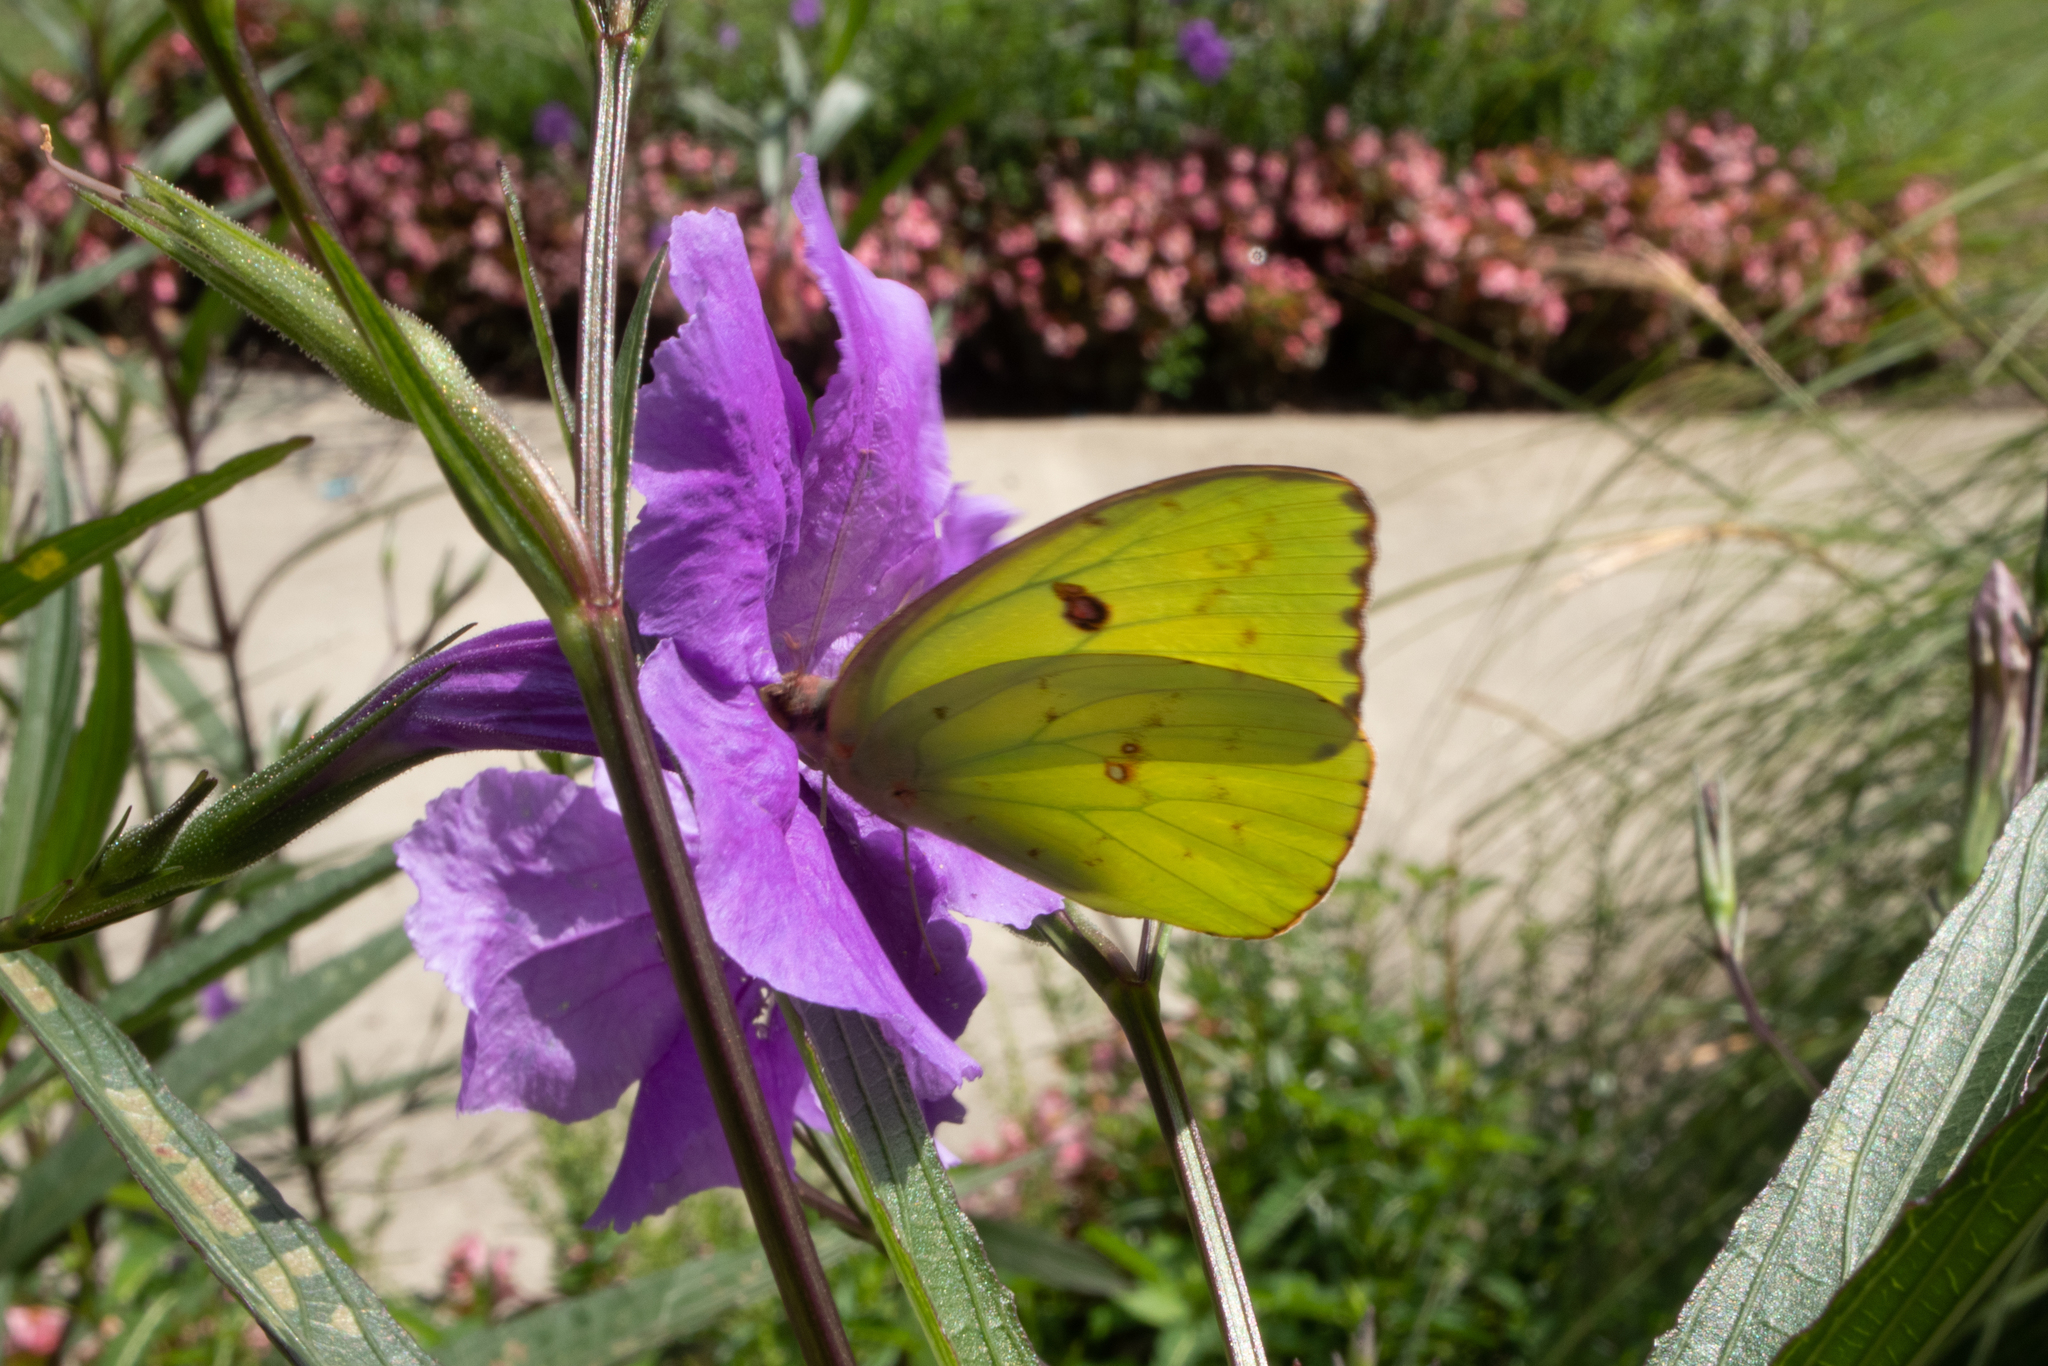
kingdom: Animalia
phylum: Arthropoda
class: Insecta
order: Lepidoptera
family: Pieridae
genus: Phoebis
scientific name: Phoebis sennae
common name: Cloudless sulphur
